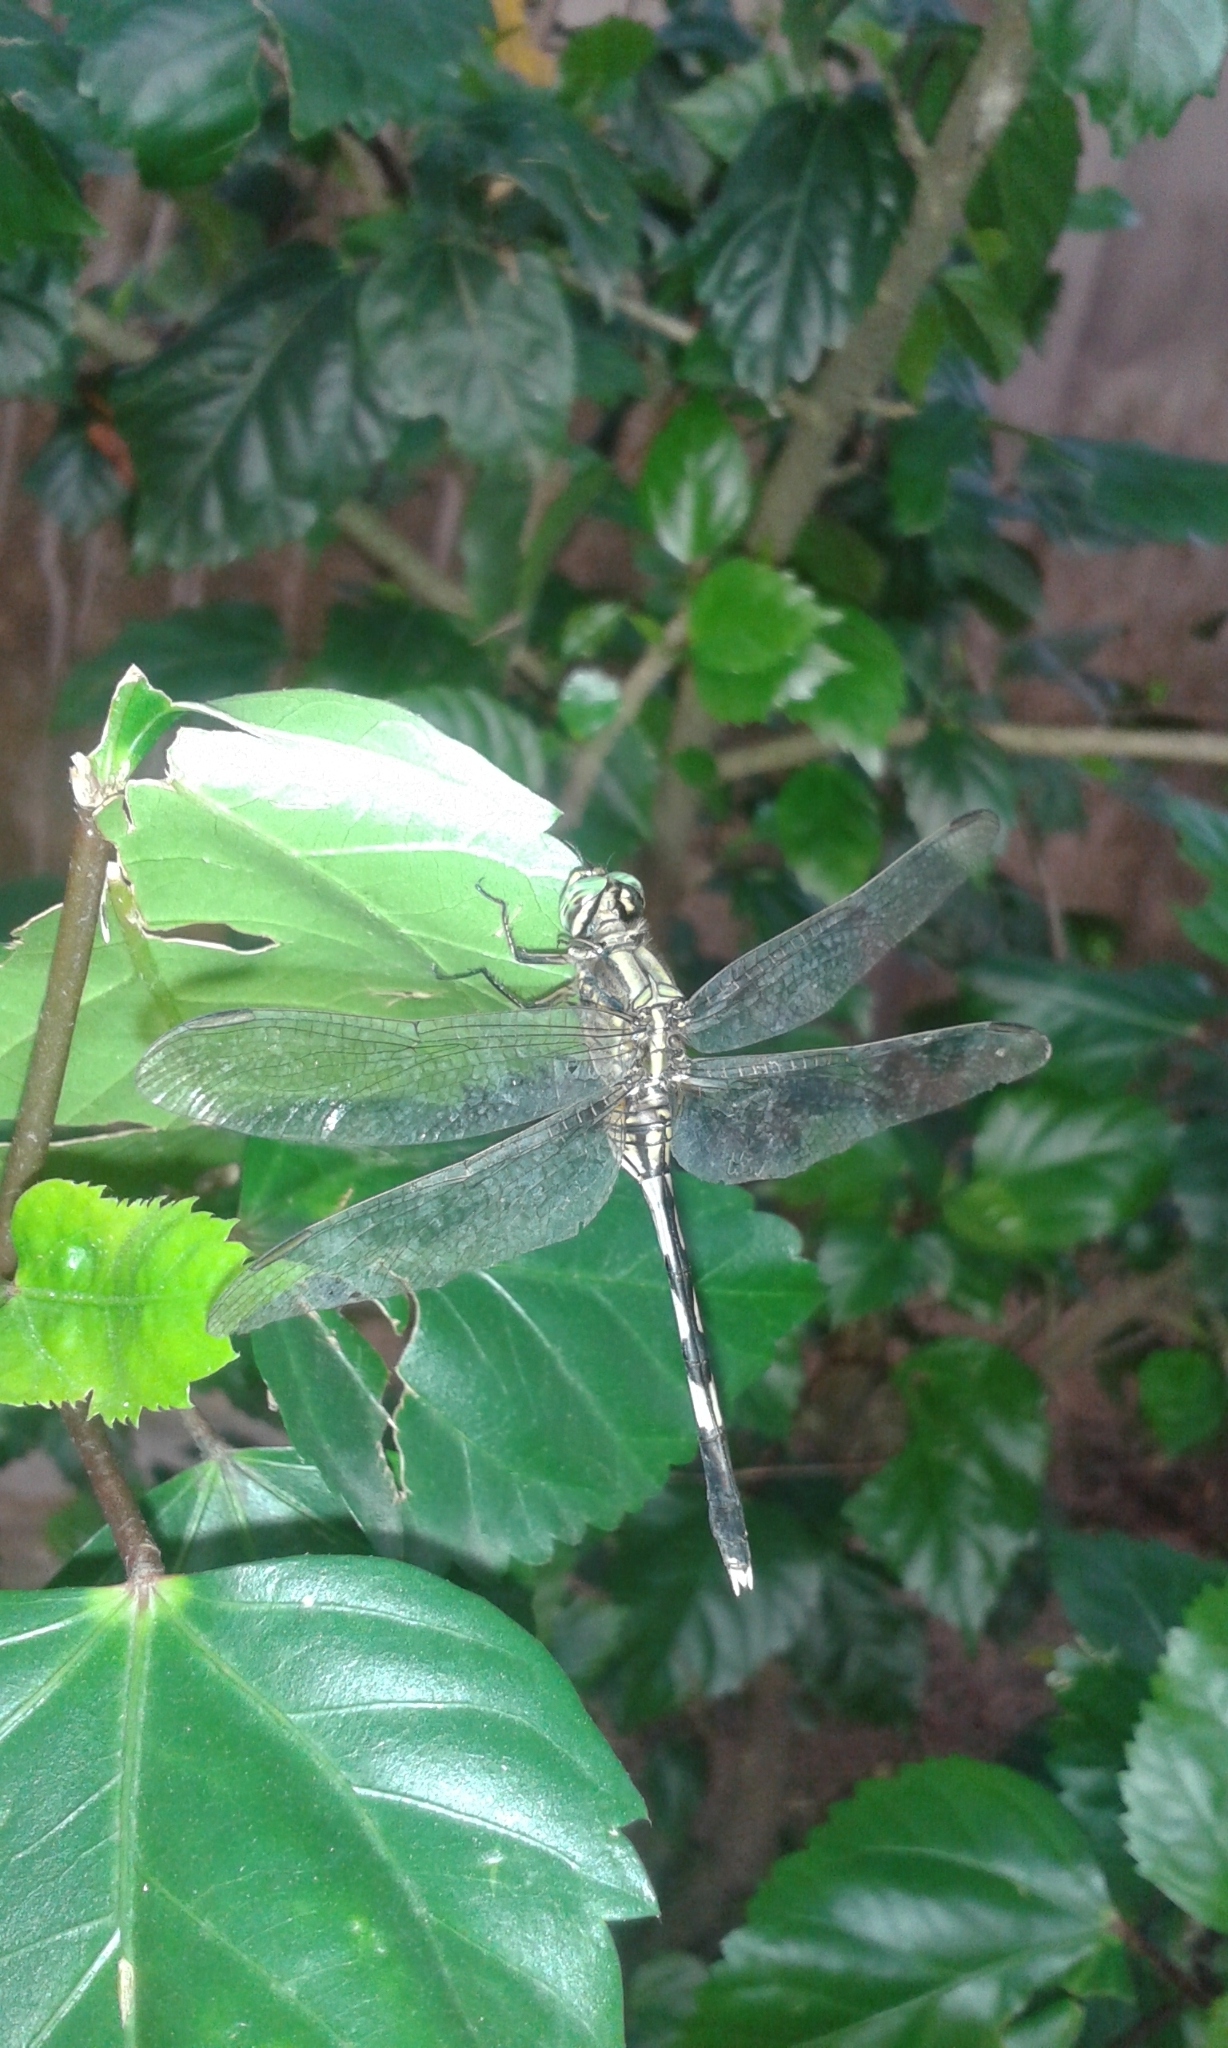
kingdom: Animalia
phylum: Arthropoda
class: Insecta
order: Odonata
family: Libellulidae
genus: Orthetrum
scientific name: Orthetrum sabina
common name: Slender skimmer
